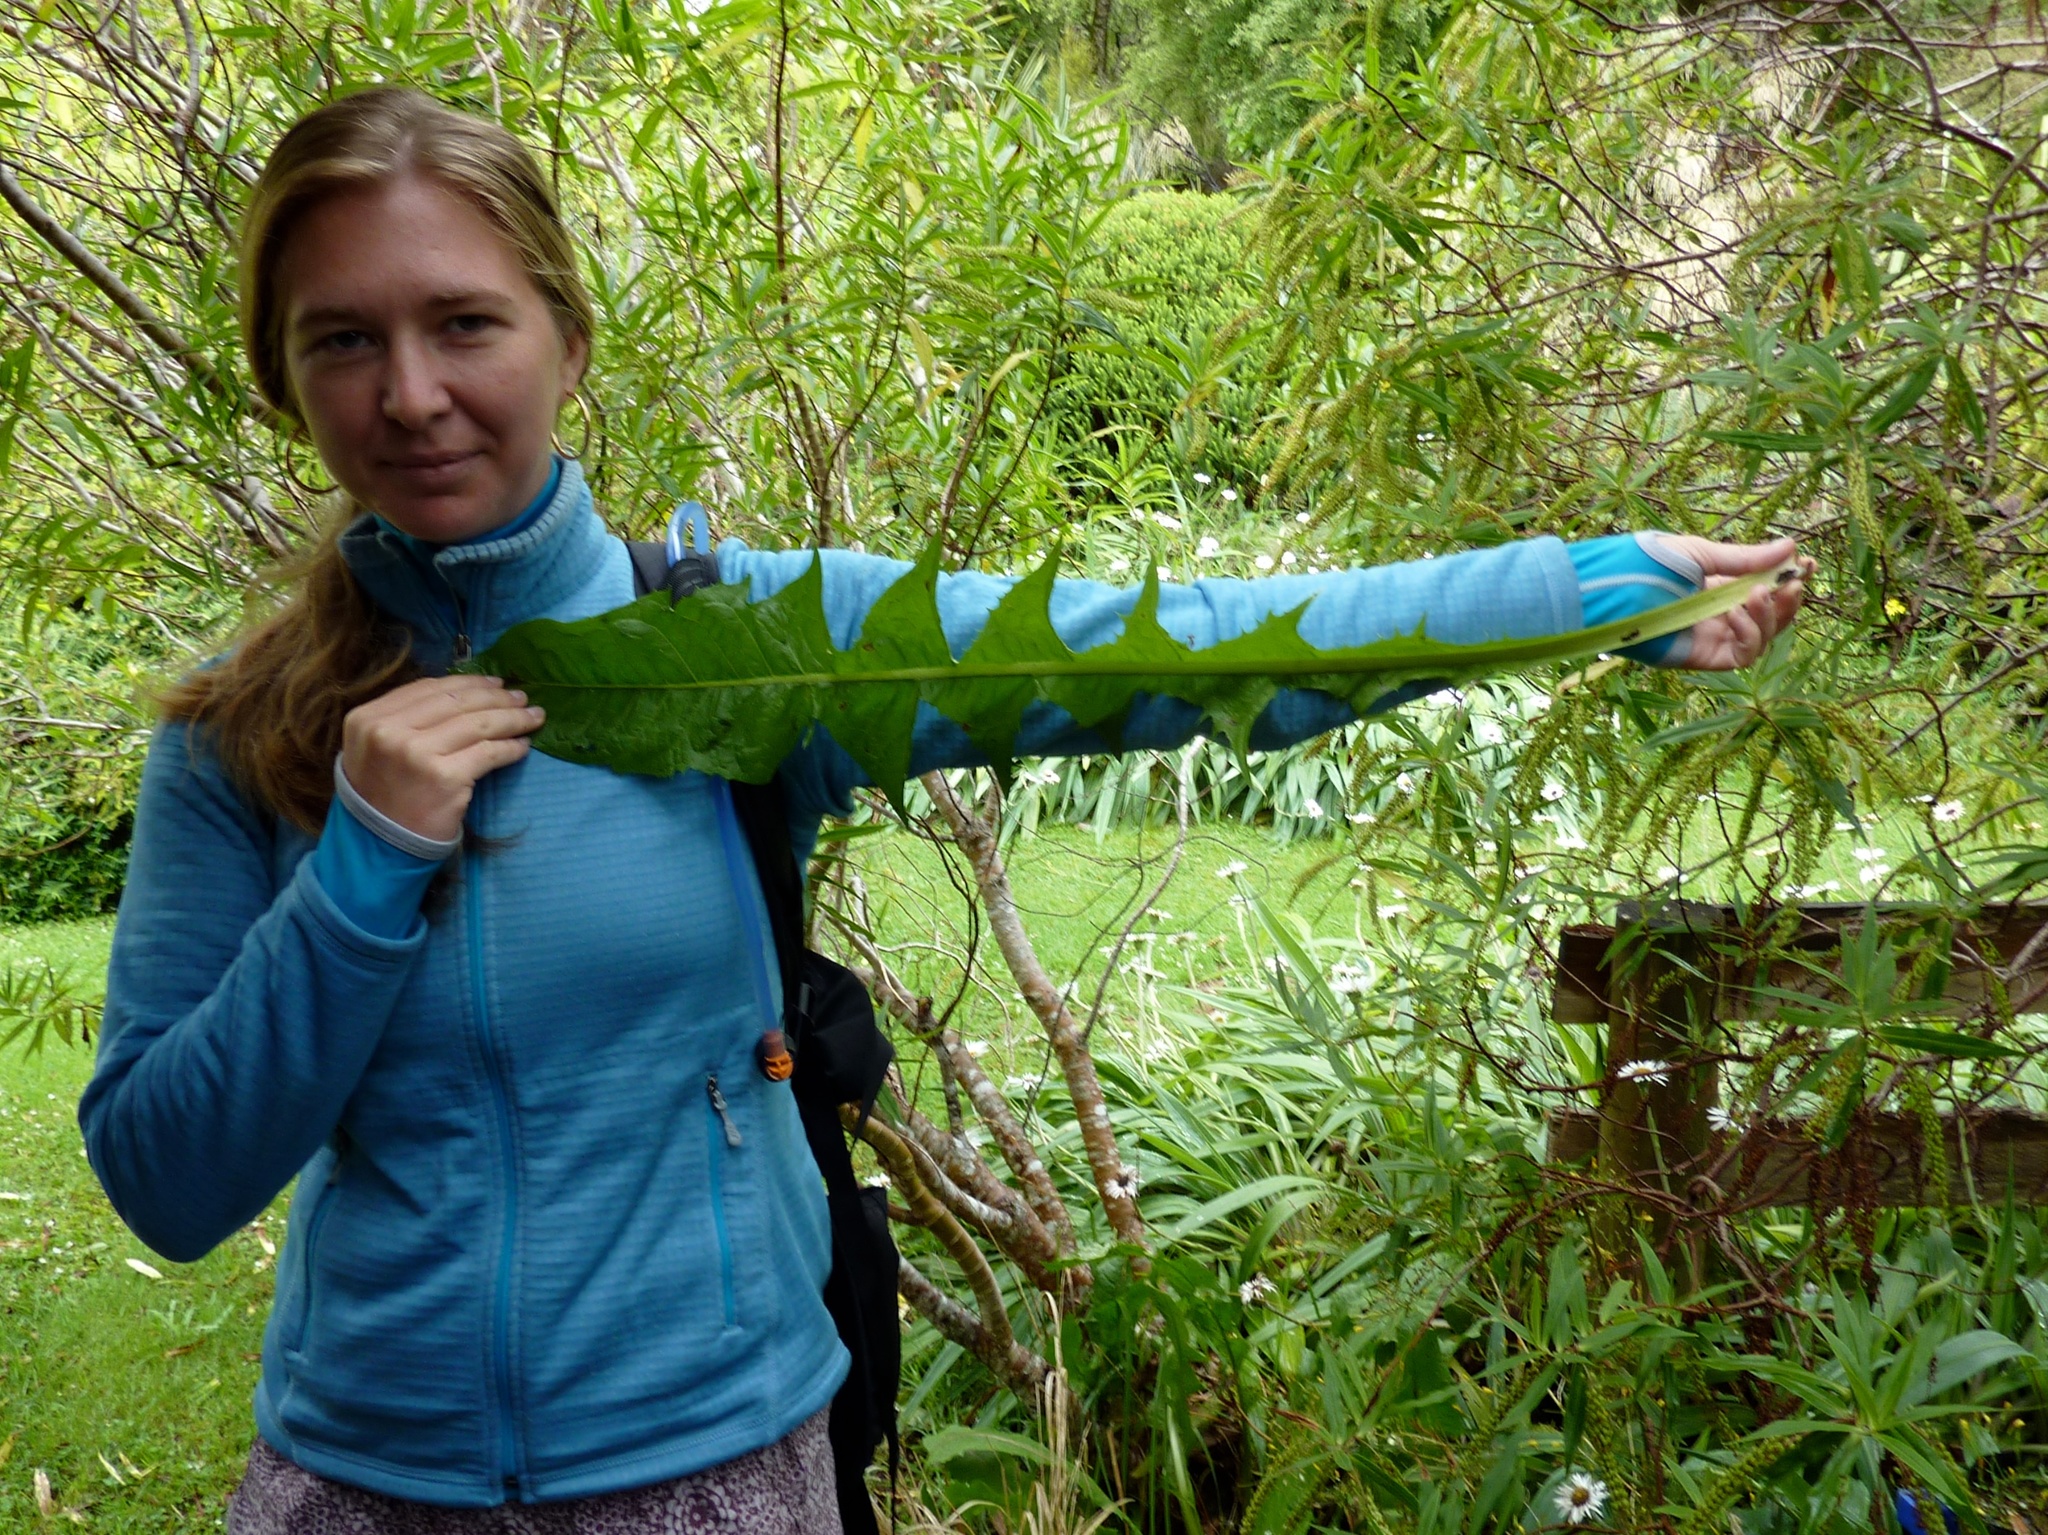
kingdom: Plantae
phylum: Tracheophyta
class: Magnoliopsida
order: Asterales
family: Asteraceae
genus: Taraxacum
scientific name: Taraxacum officinale
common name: Common dandelion
